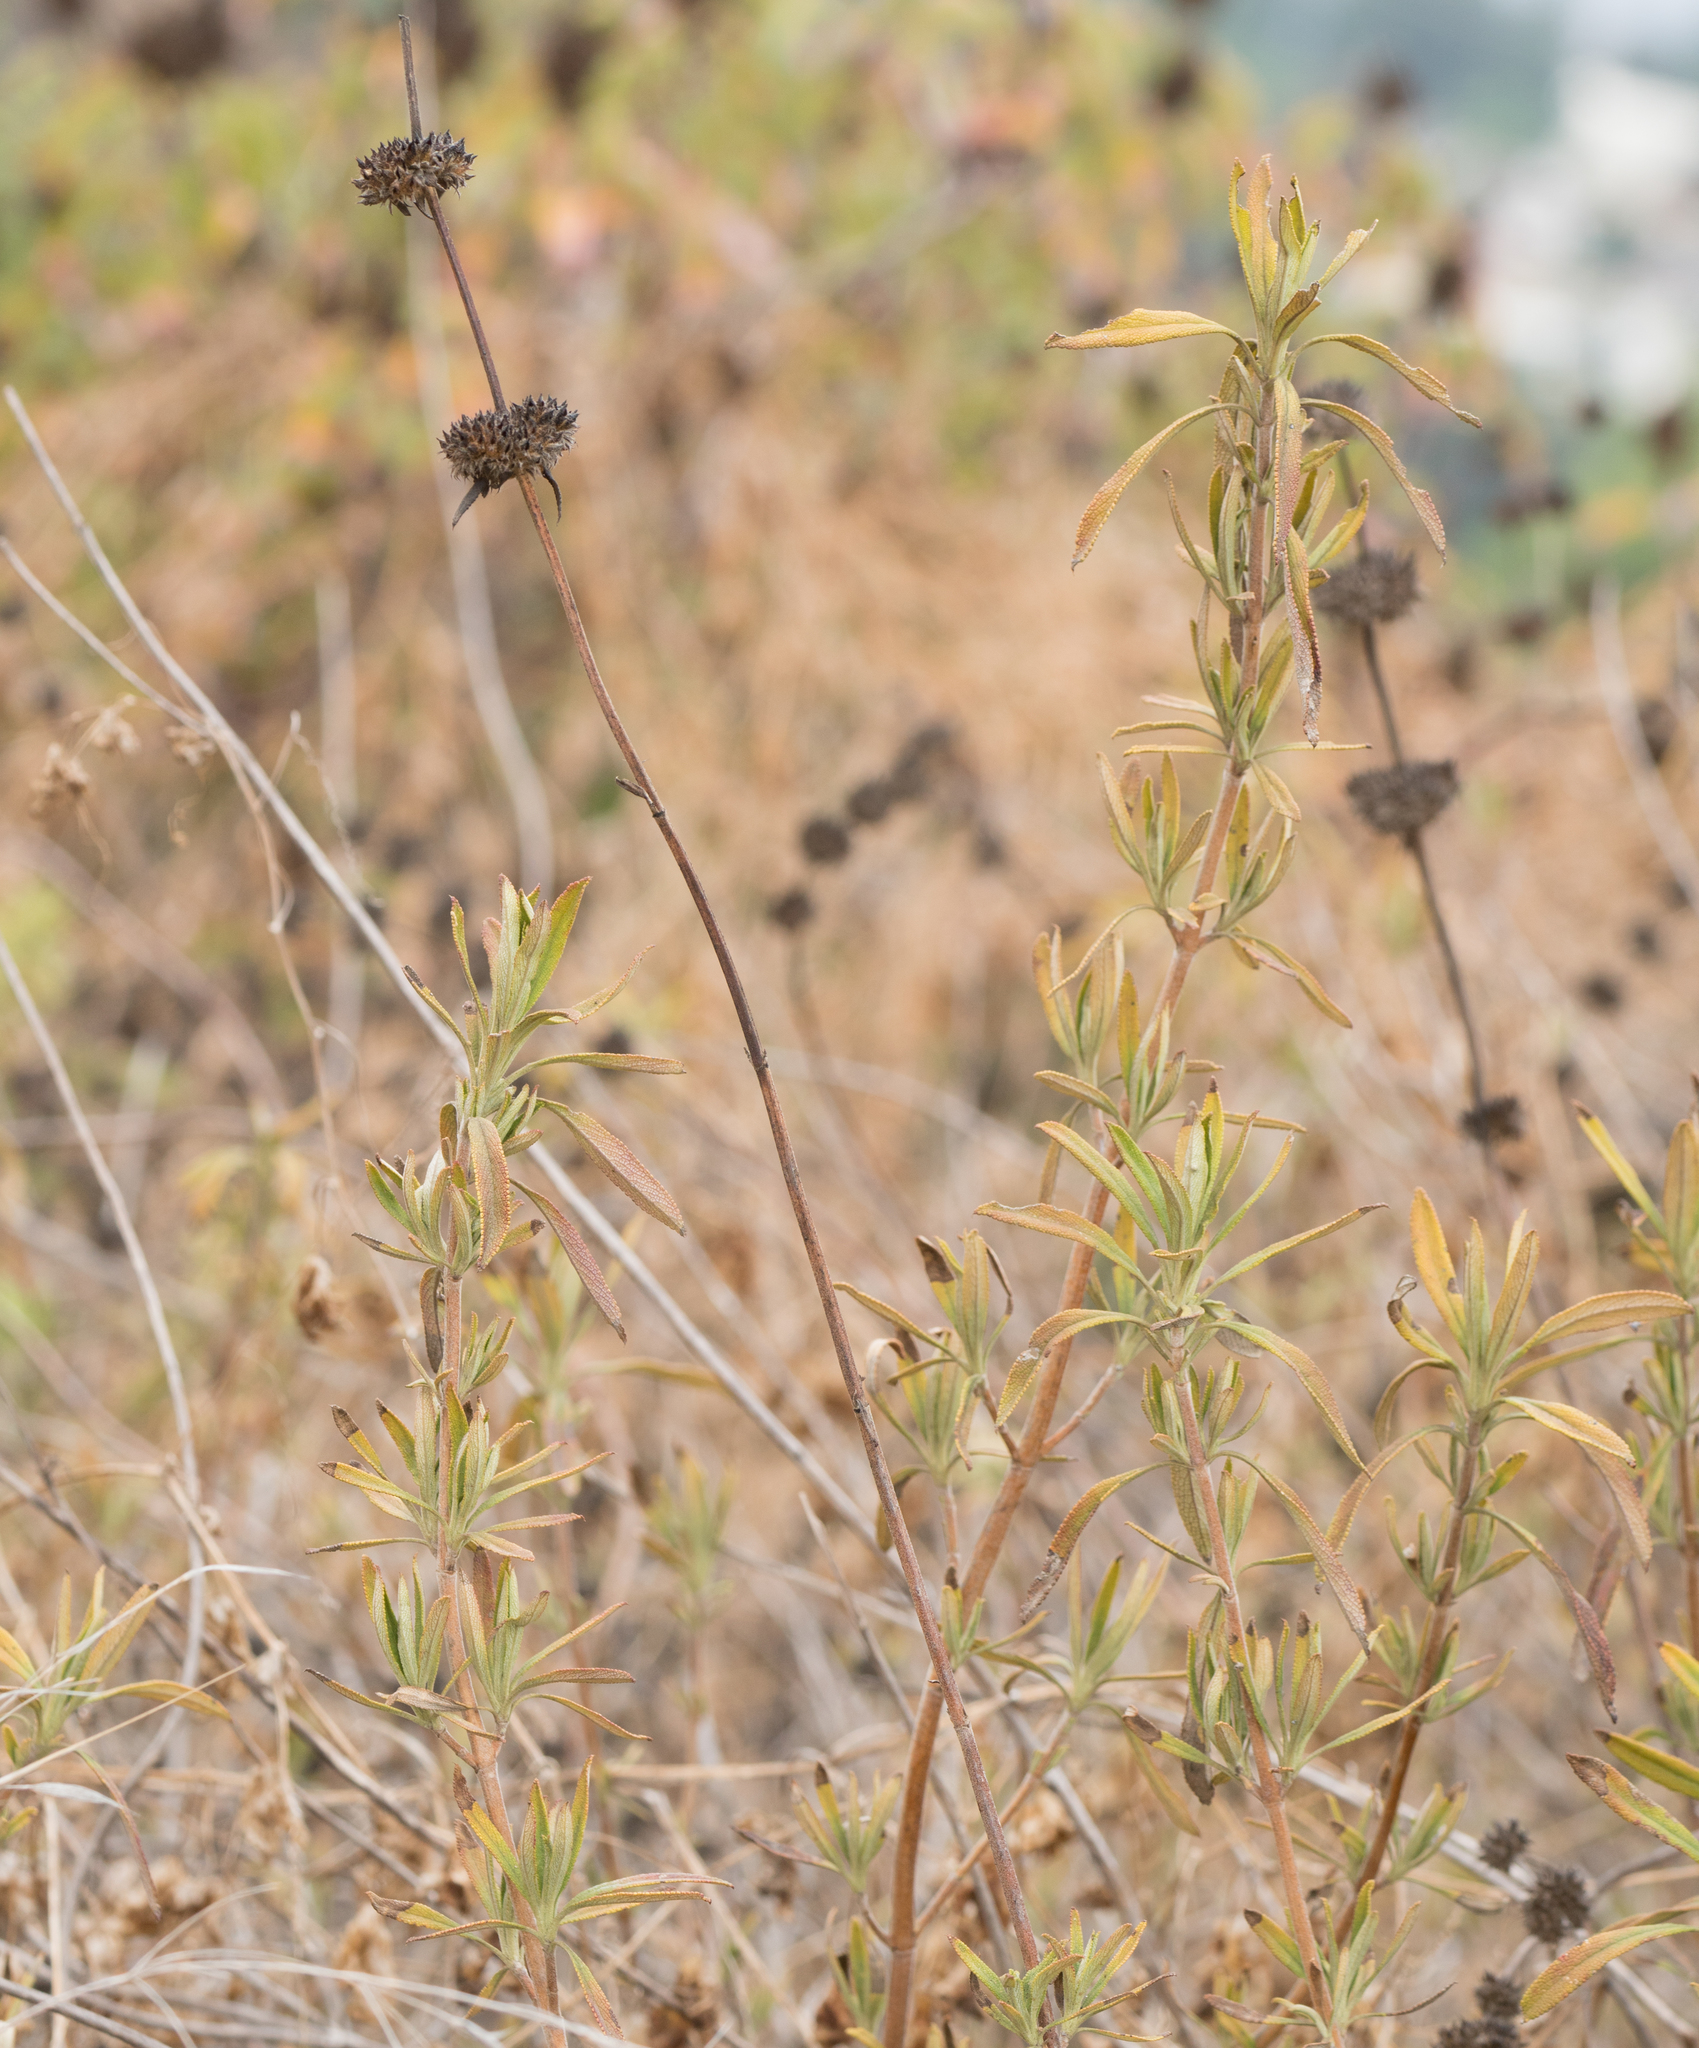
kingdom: Plantae
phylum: Tracheophyta
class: Magnoliopsida
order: Lamiales
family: Lamiaceae
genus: Salvia
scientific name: Salvia mellifera
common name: Black sage
